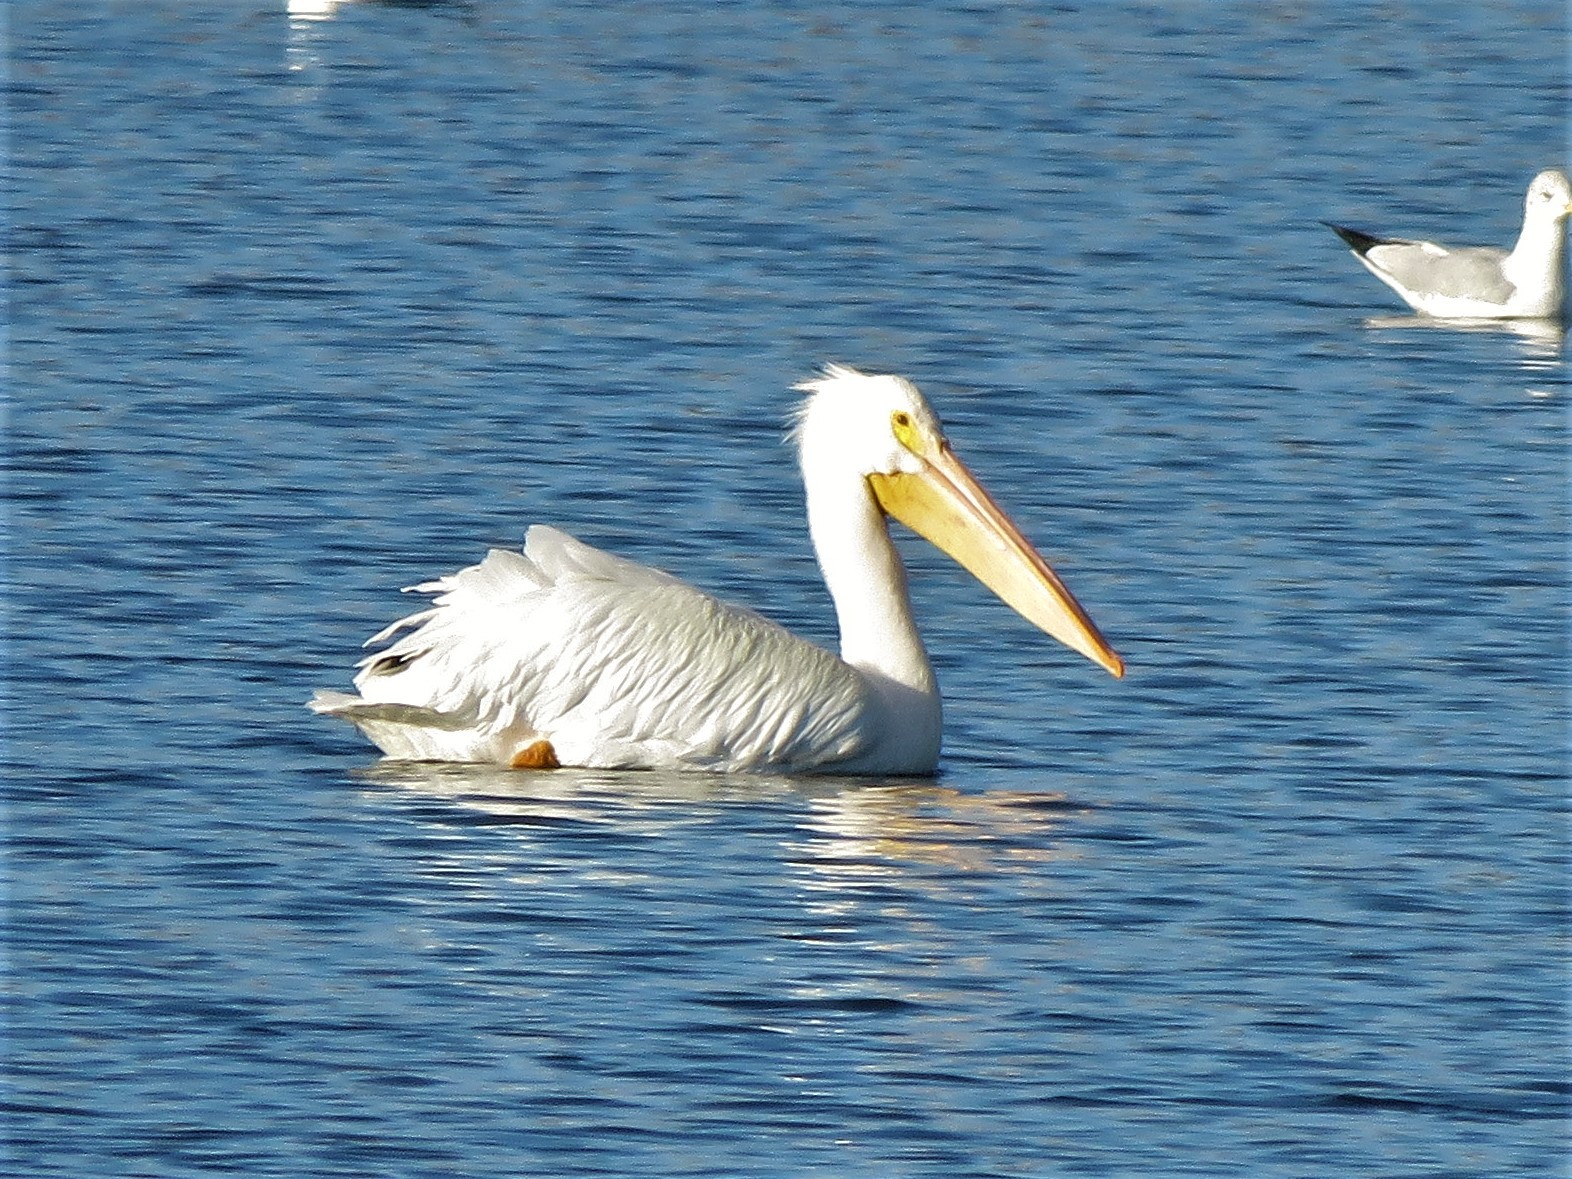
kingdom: Animalia
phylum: Chordata
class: Aves
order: Pelecaniformes
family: Pelecanidae
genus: Pelecanus
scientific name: Pelecanus erythrorhynchos
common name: American white pelican
